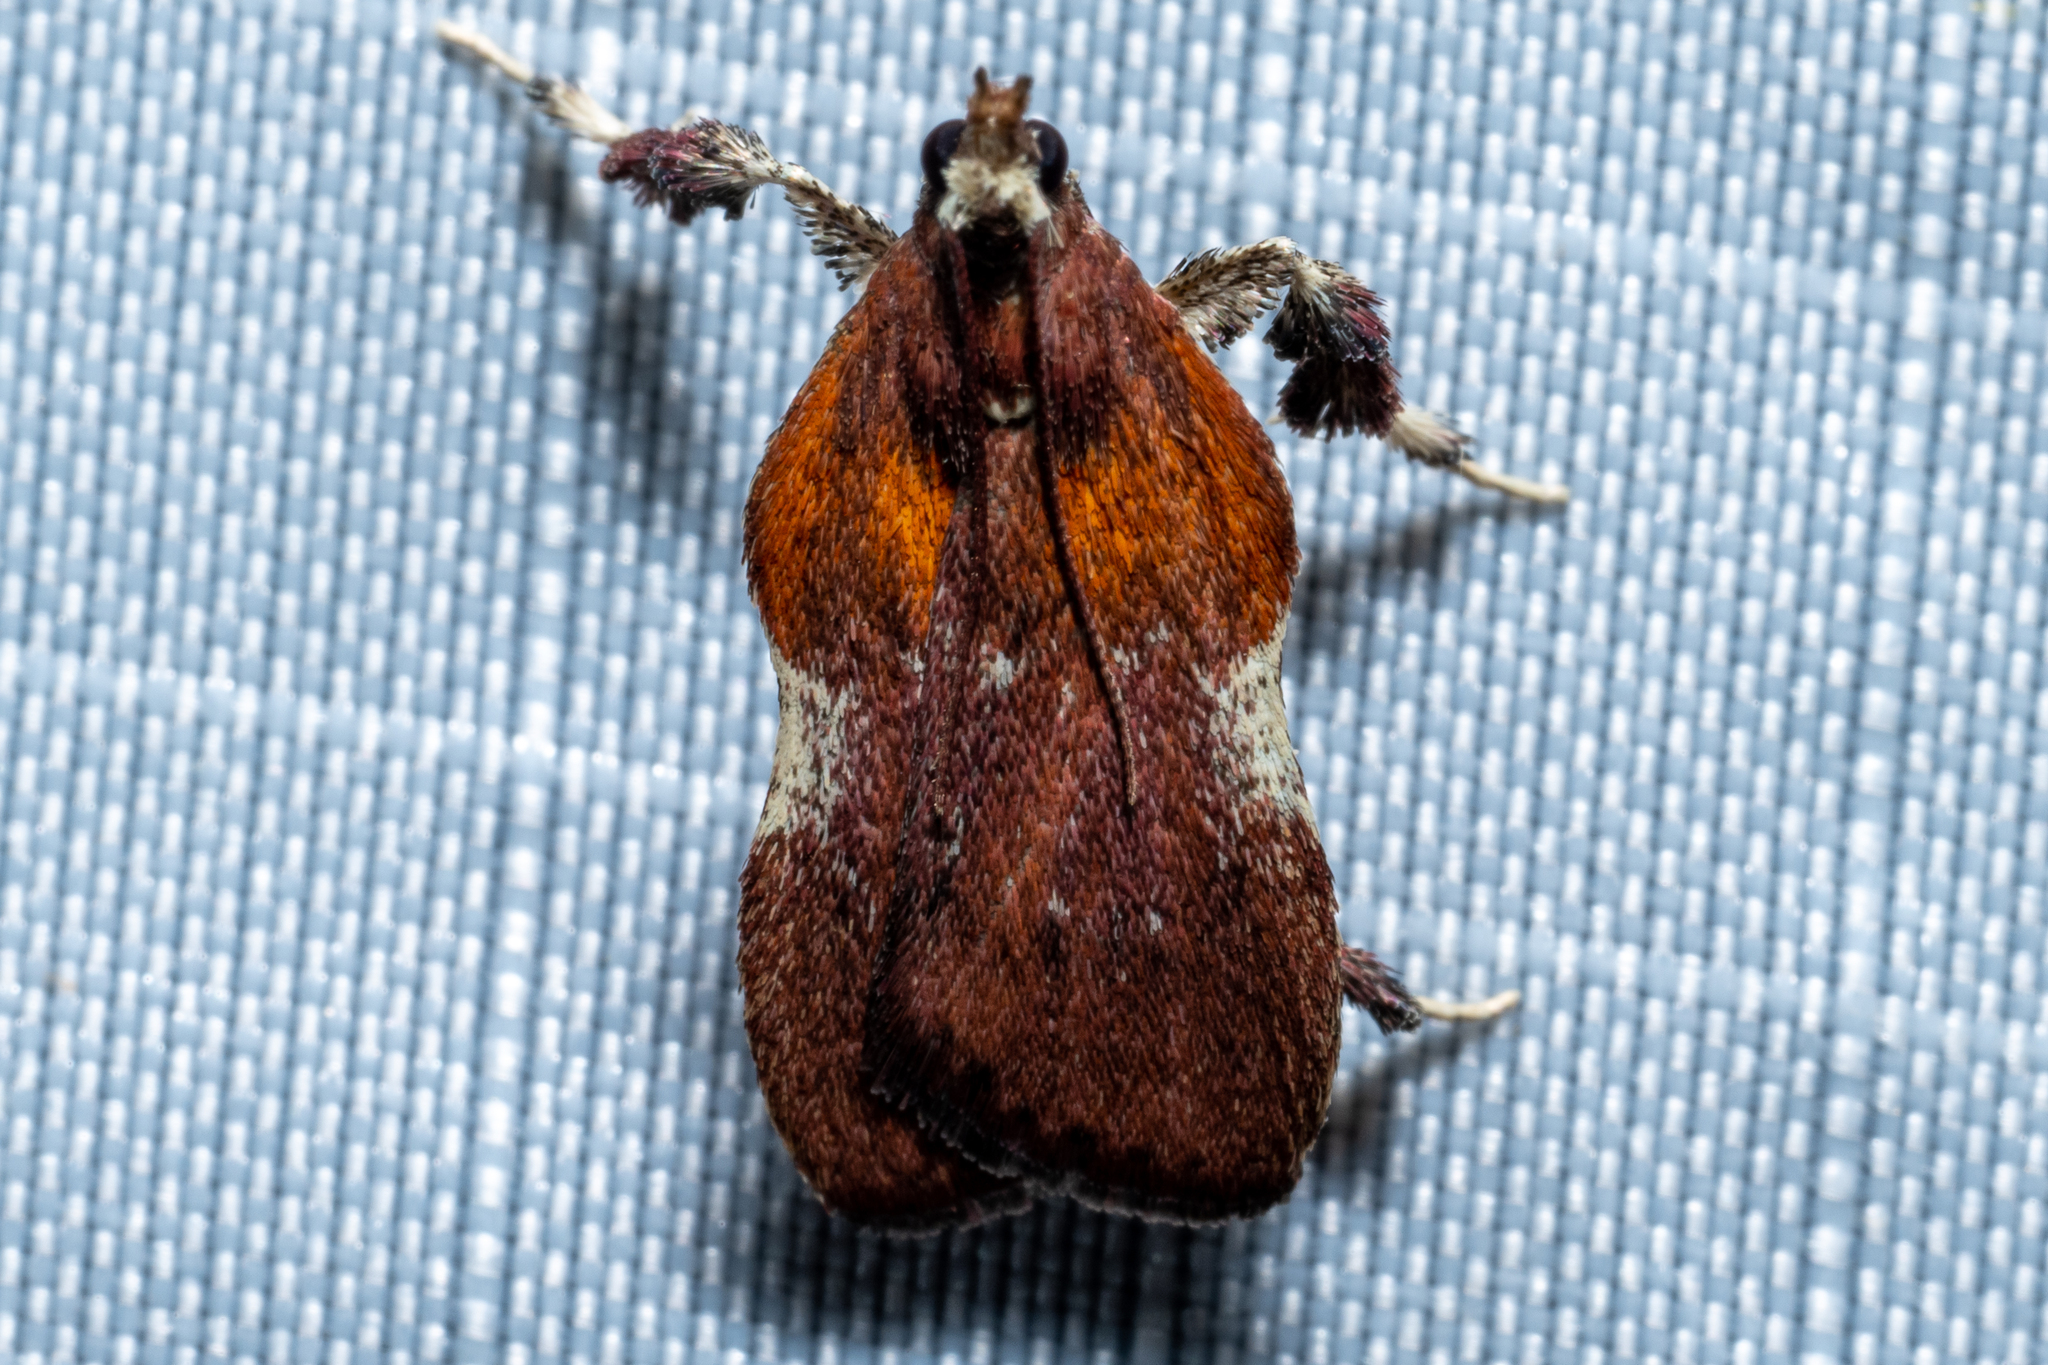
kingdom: Animalia
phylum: Arthropoda
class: Insecta
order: Lepidoptera
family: Pyralidae
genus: Galasa
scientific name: Galasa nigrinodis
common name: Boxwood leaftier moth
